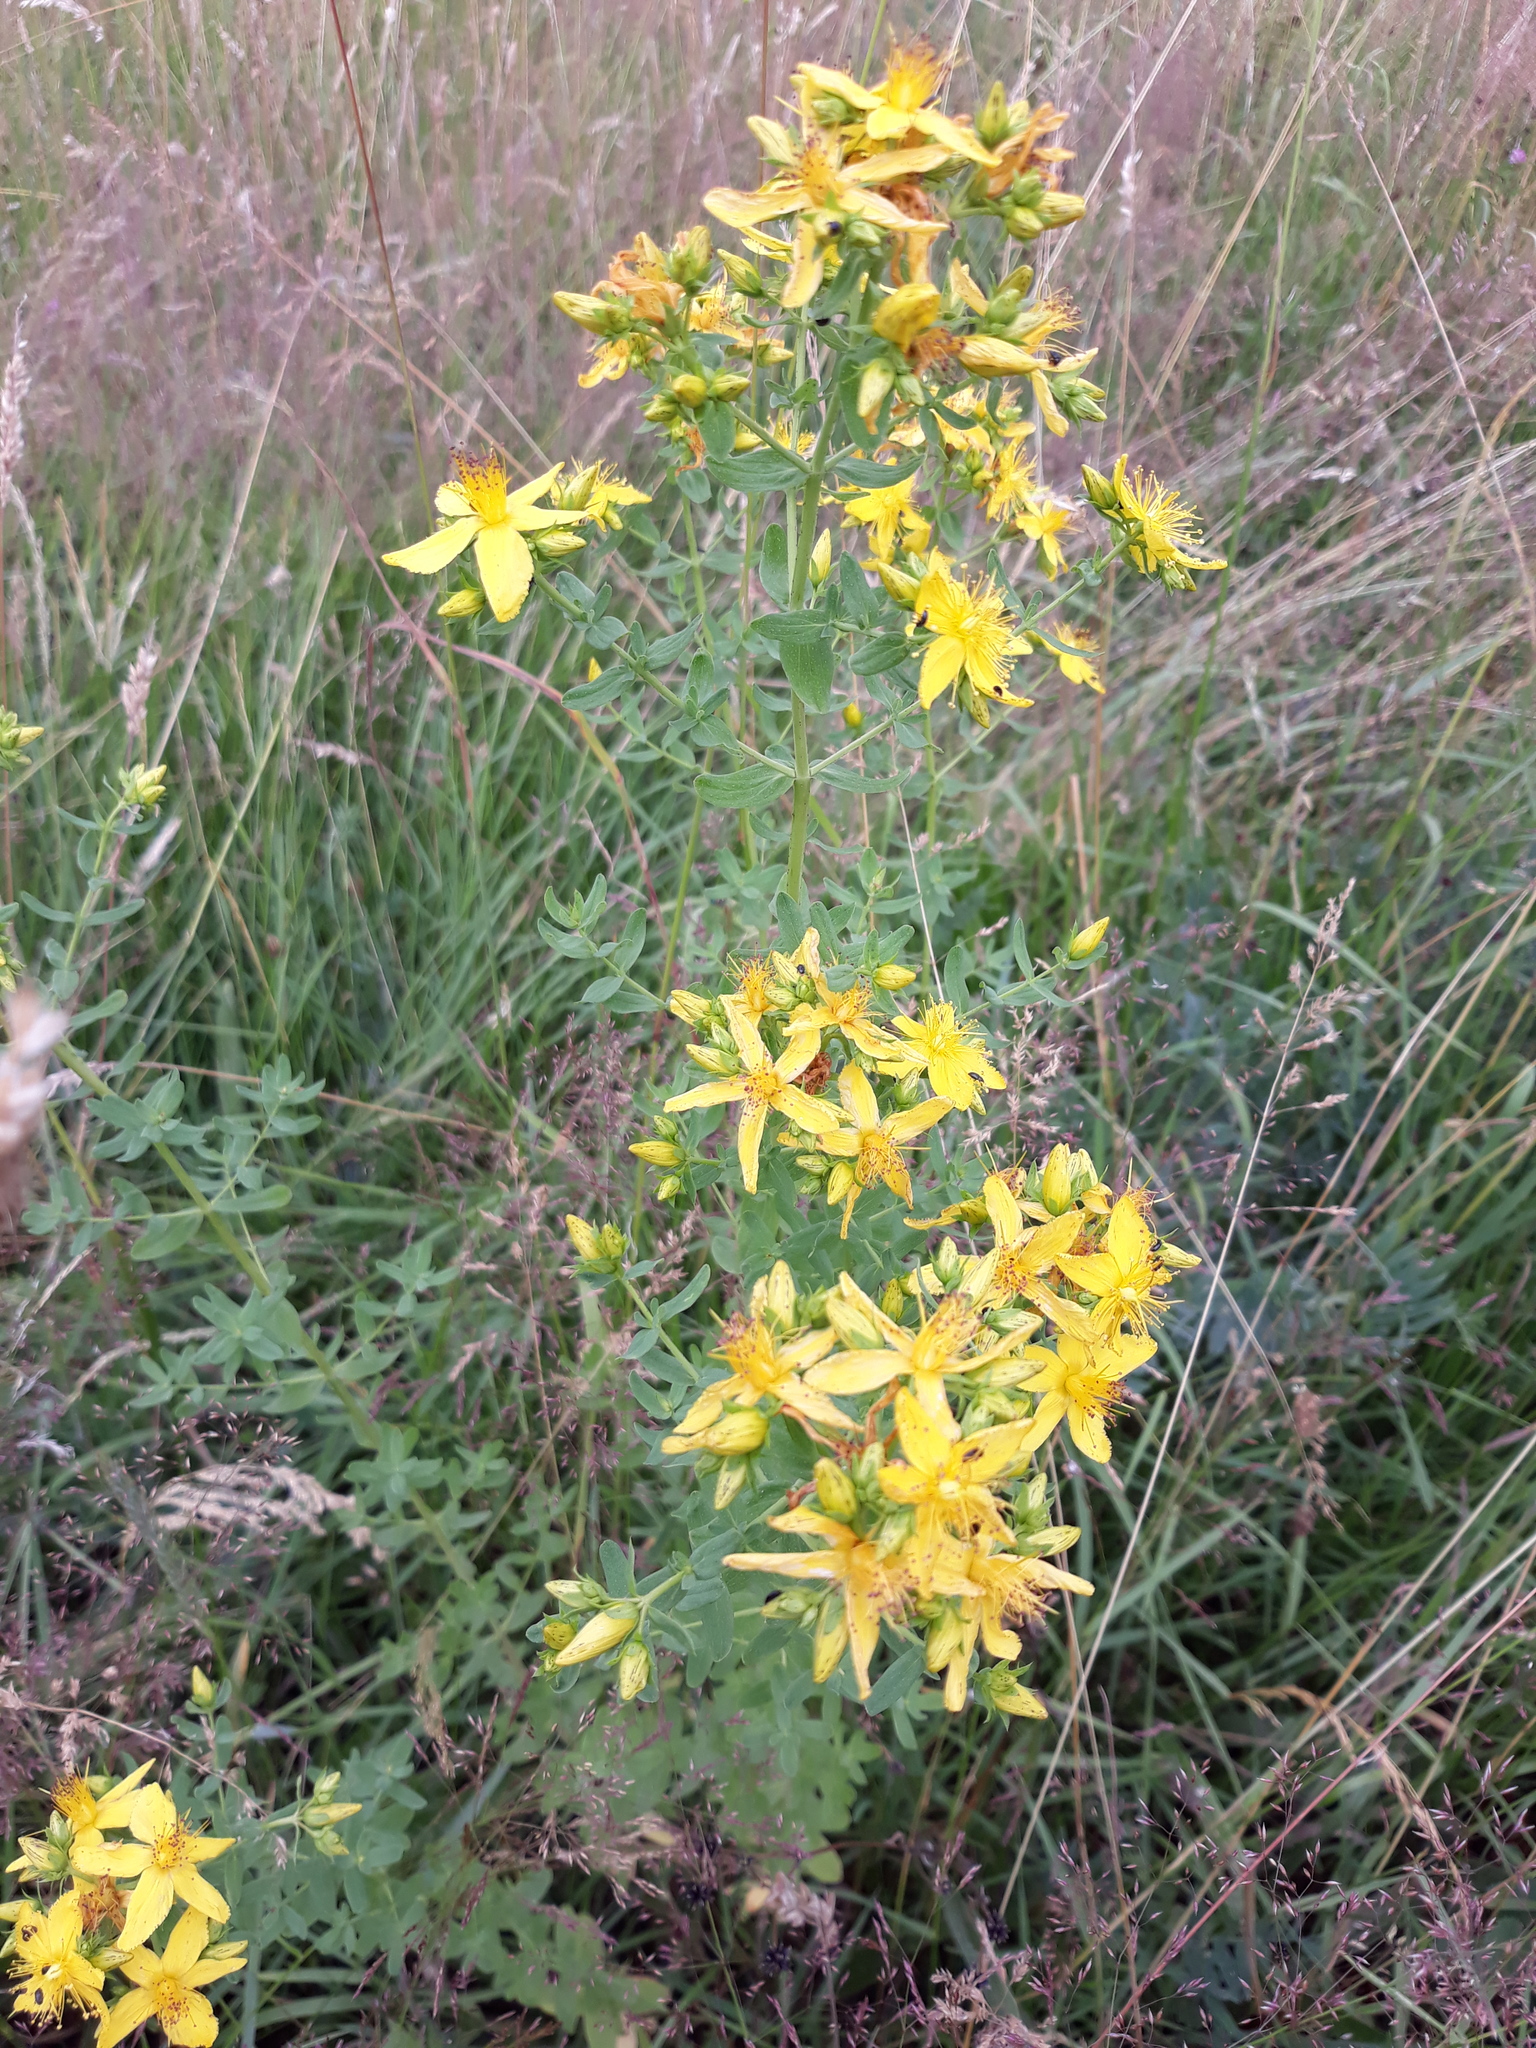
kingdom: Plantae
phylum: Tracheophyta
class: Magnoliopsida
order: Malpighiales
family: Hypericaceae
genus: Hypericum
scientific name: Hypericum perforatum
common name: Common st. johnswort
